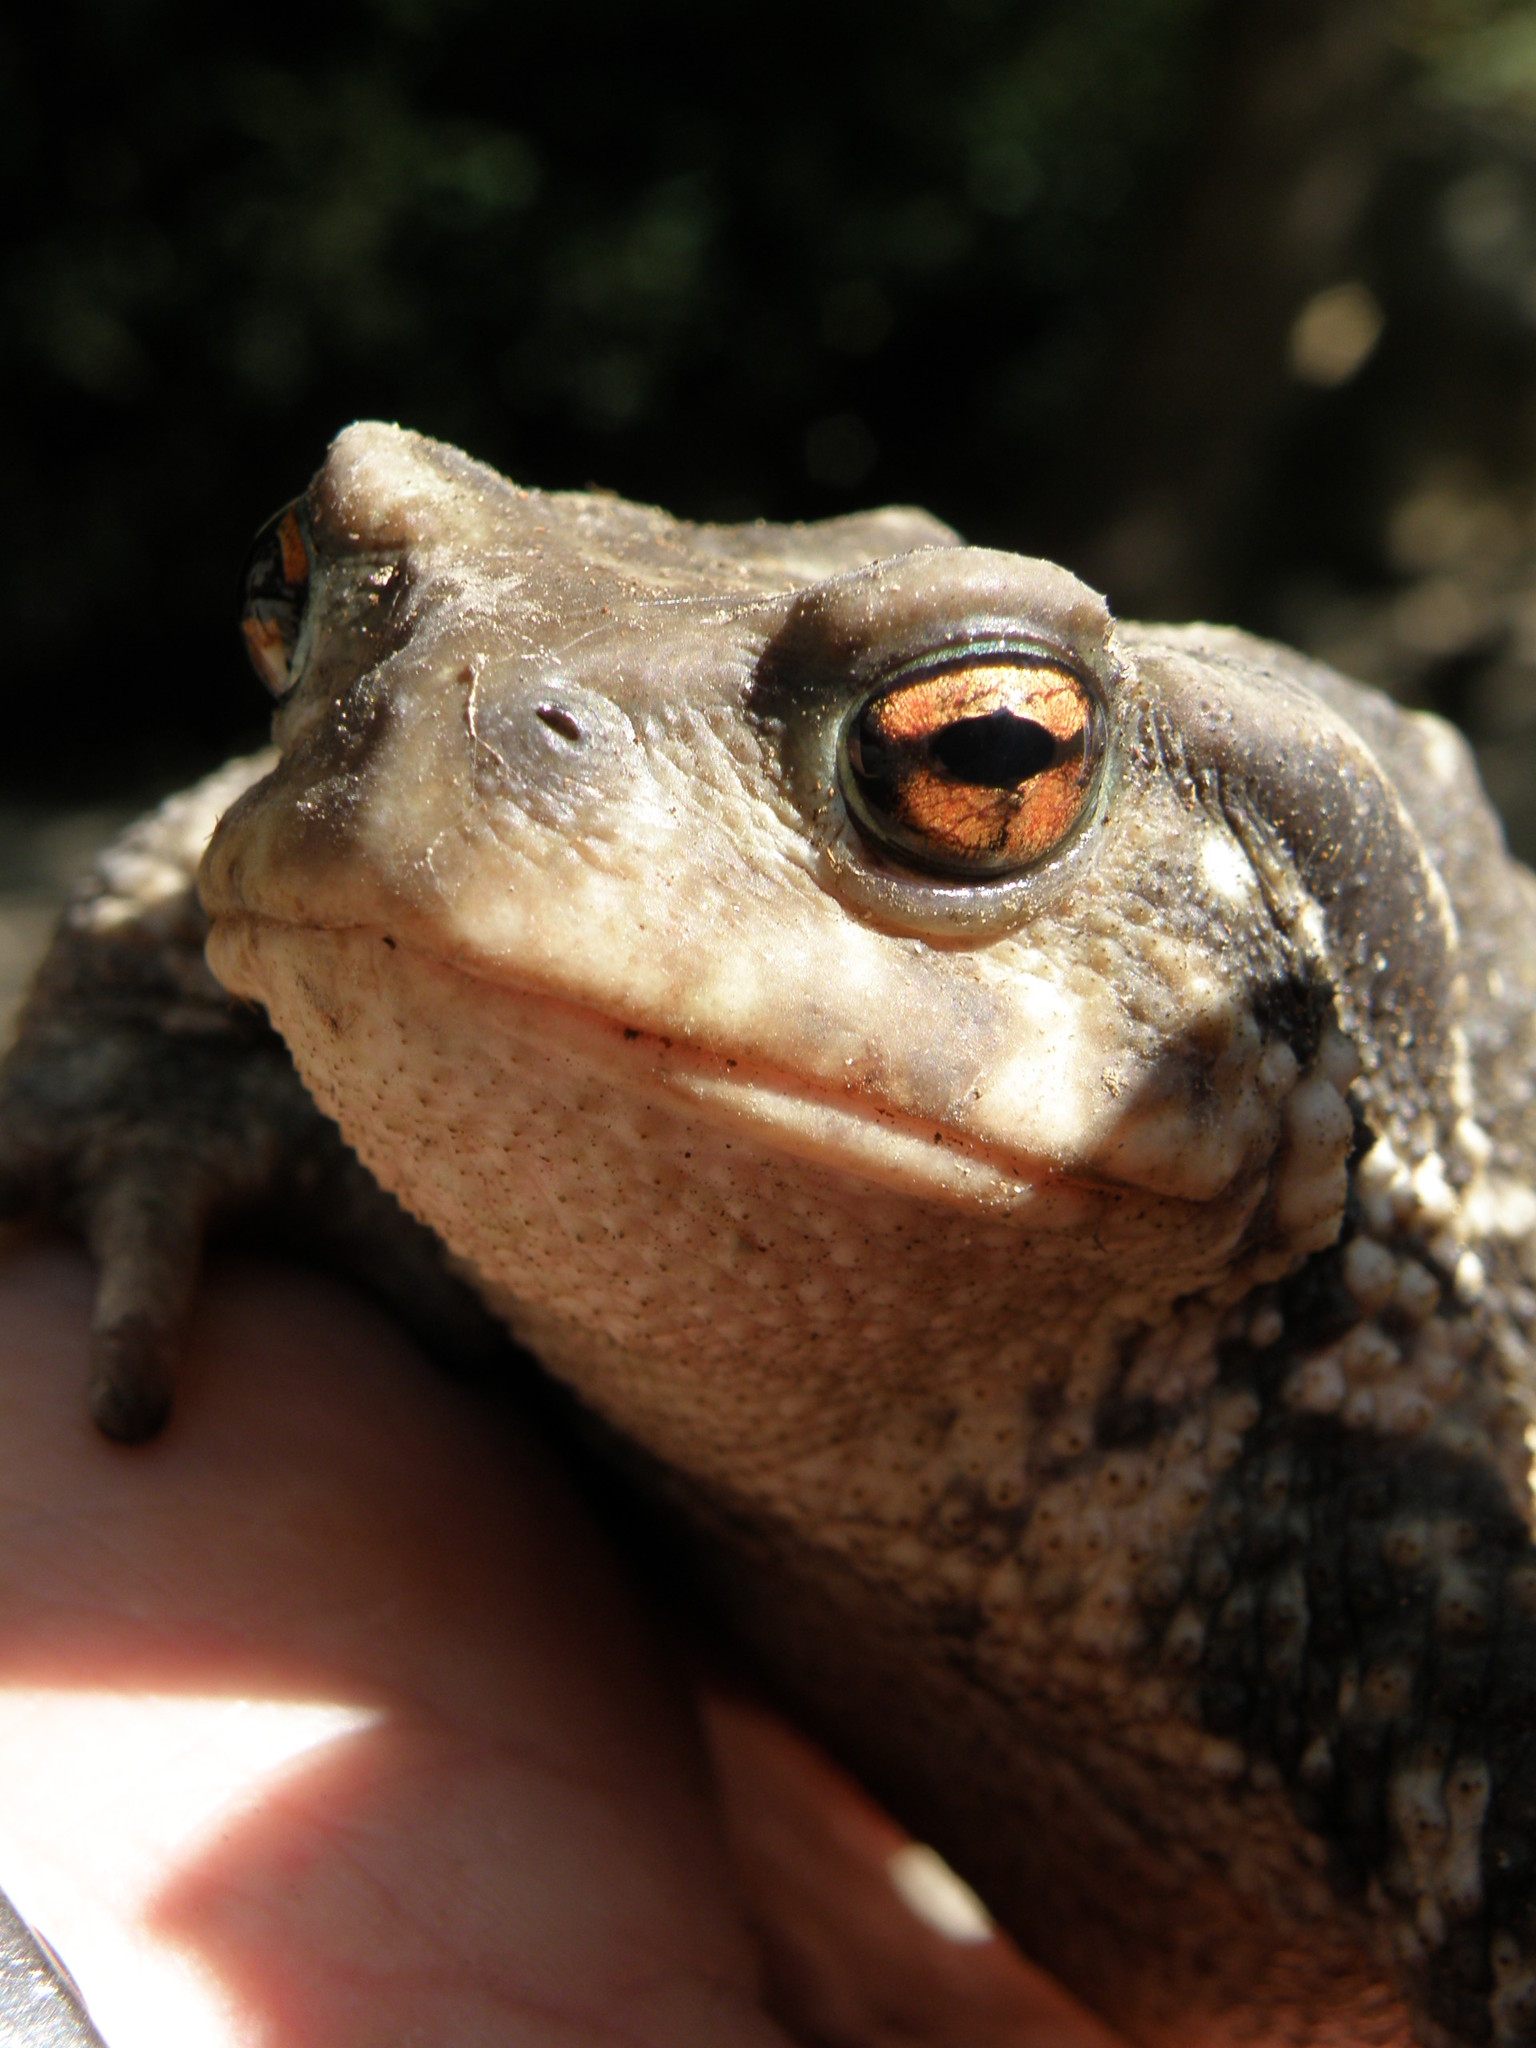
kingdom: Animalia
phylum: Chordata
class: Amphibia
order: Anura
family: Bufonidae
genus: Bufo
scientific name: Bufo spinosus
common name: Western common toad
